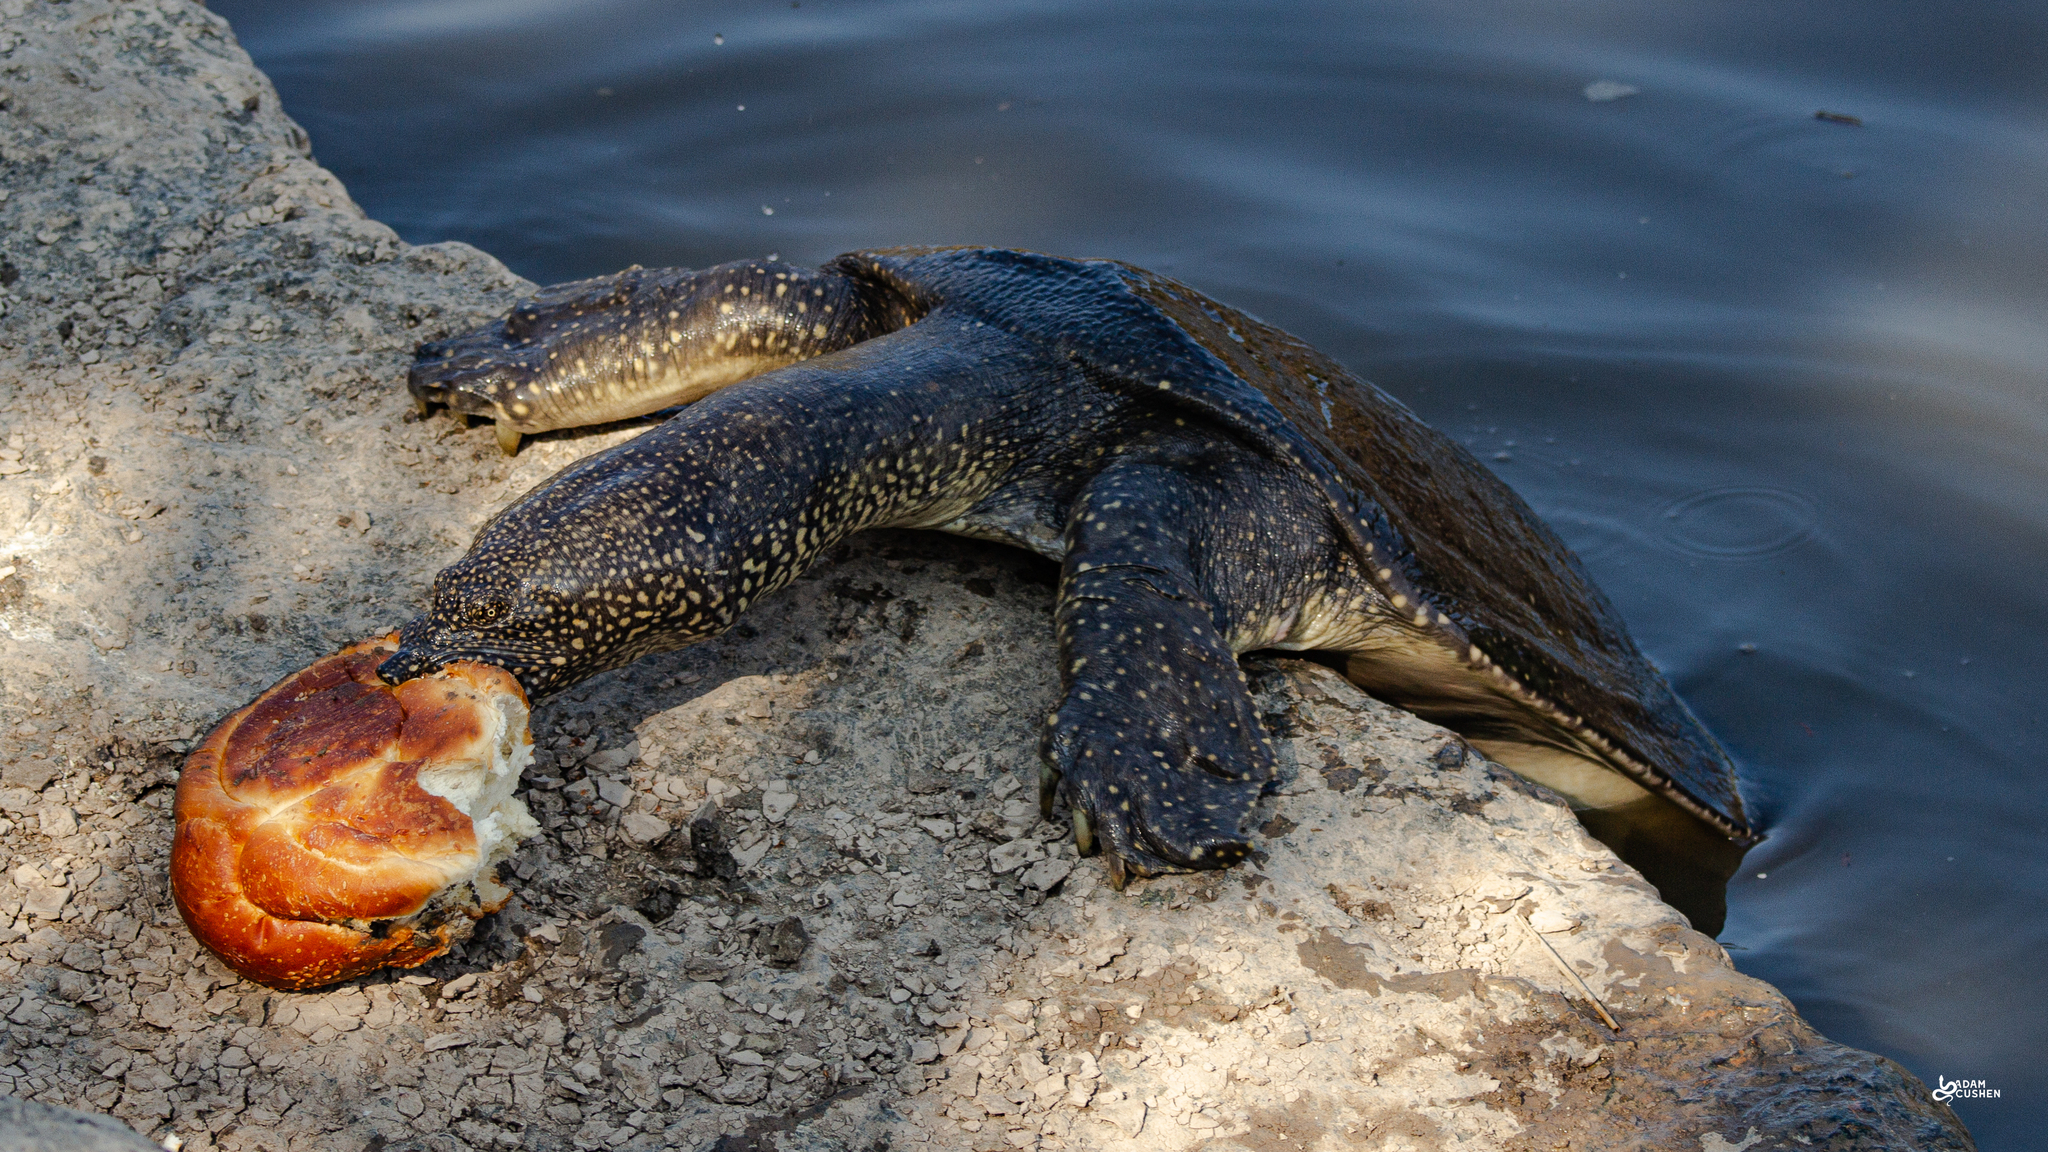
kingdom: Animalia
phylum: Chordata
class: Testudines
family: Trionychidae
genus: Trionyx
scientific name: Trionyx triunguis
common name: African softshell turtle
